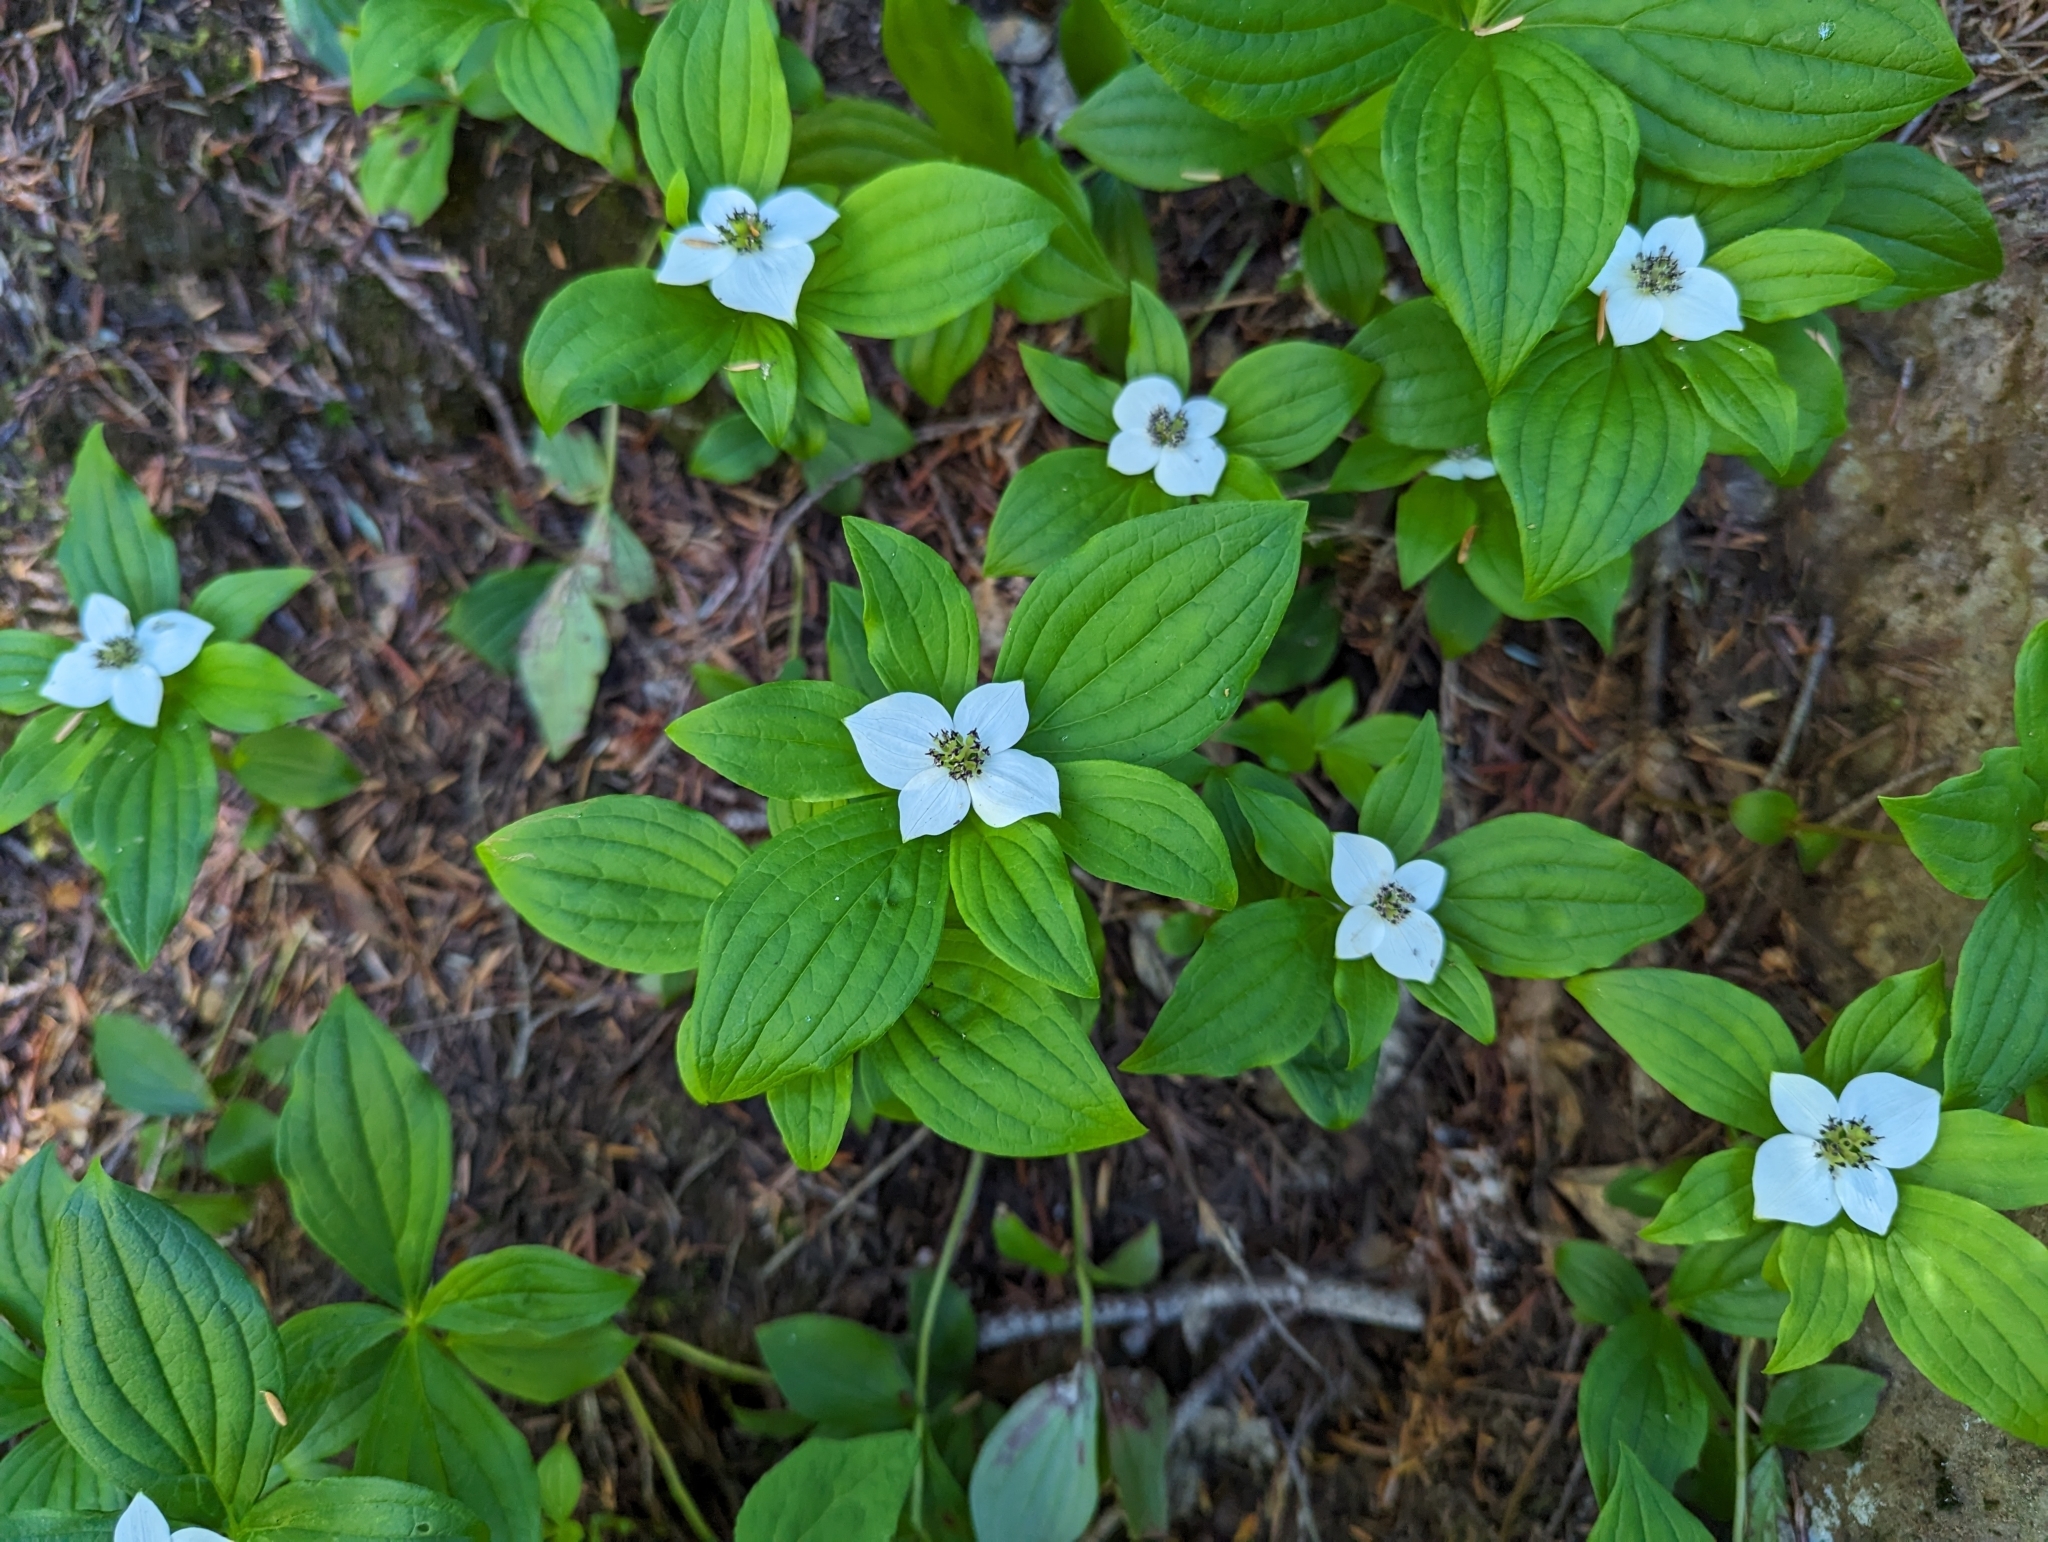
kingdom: Plantae
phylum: Tracheophyta
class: Magnoliopsida
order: Cornales
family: Cornaceae
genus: Cornus
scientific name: Cornus unalaschkensis
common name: Alaska bunchberry
